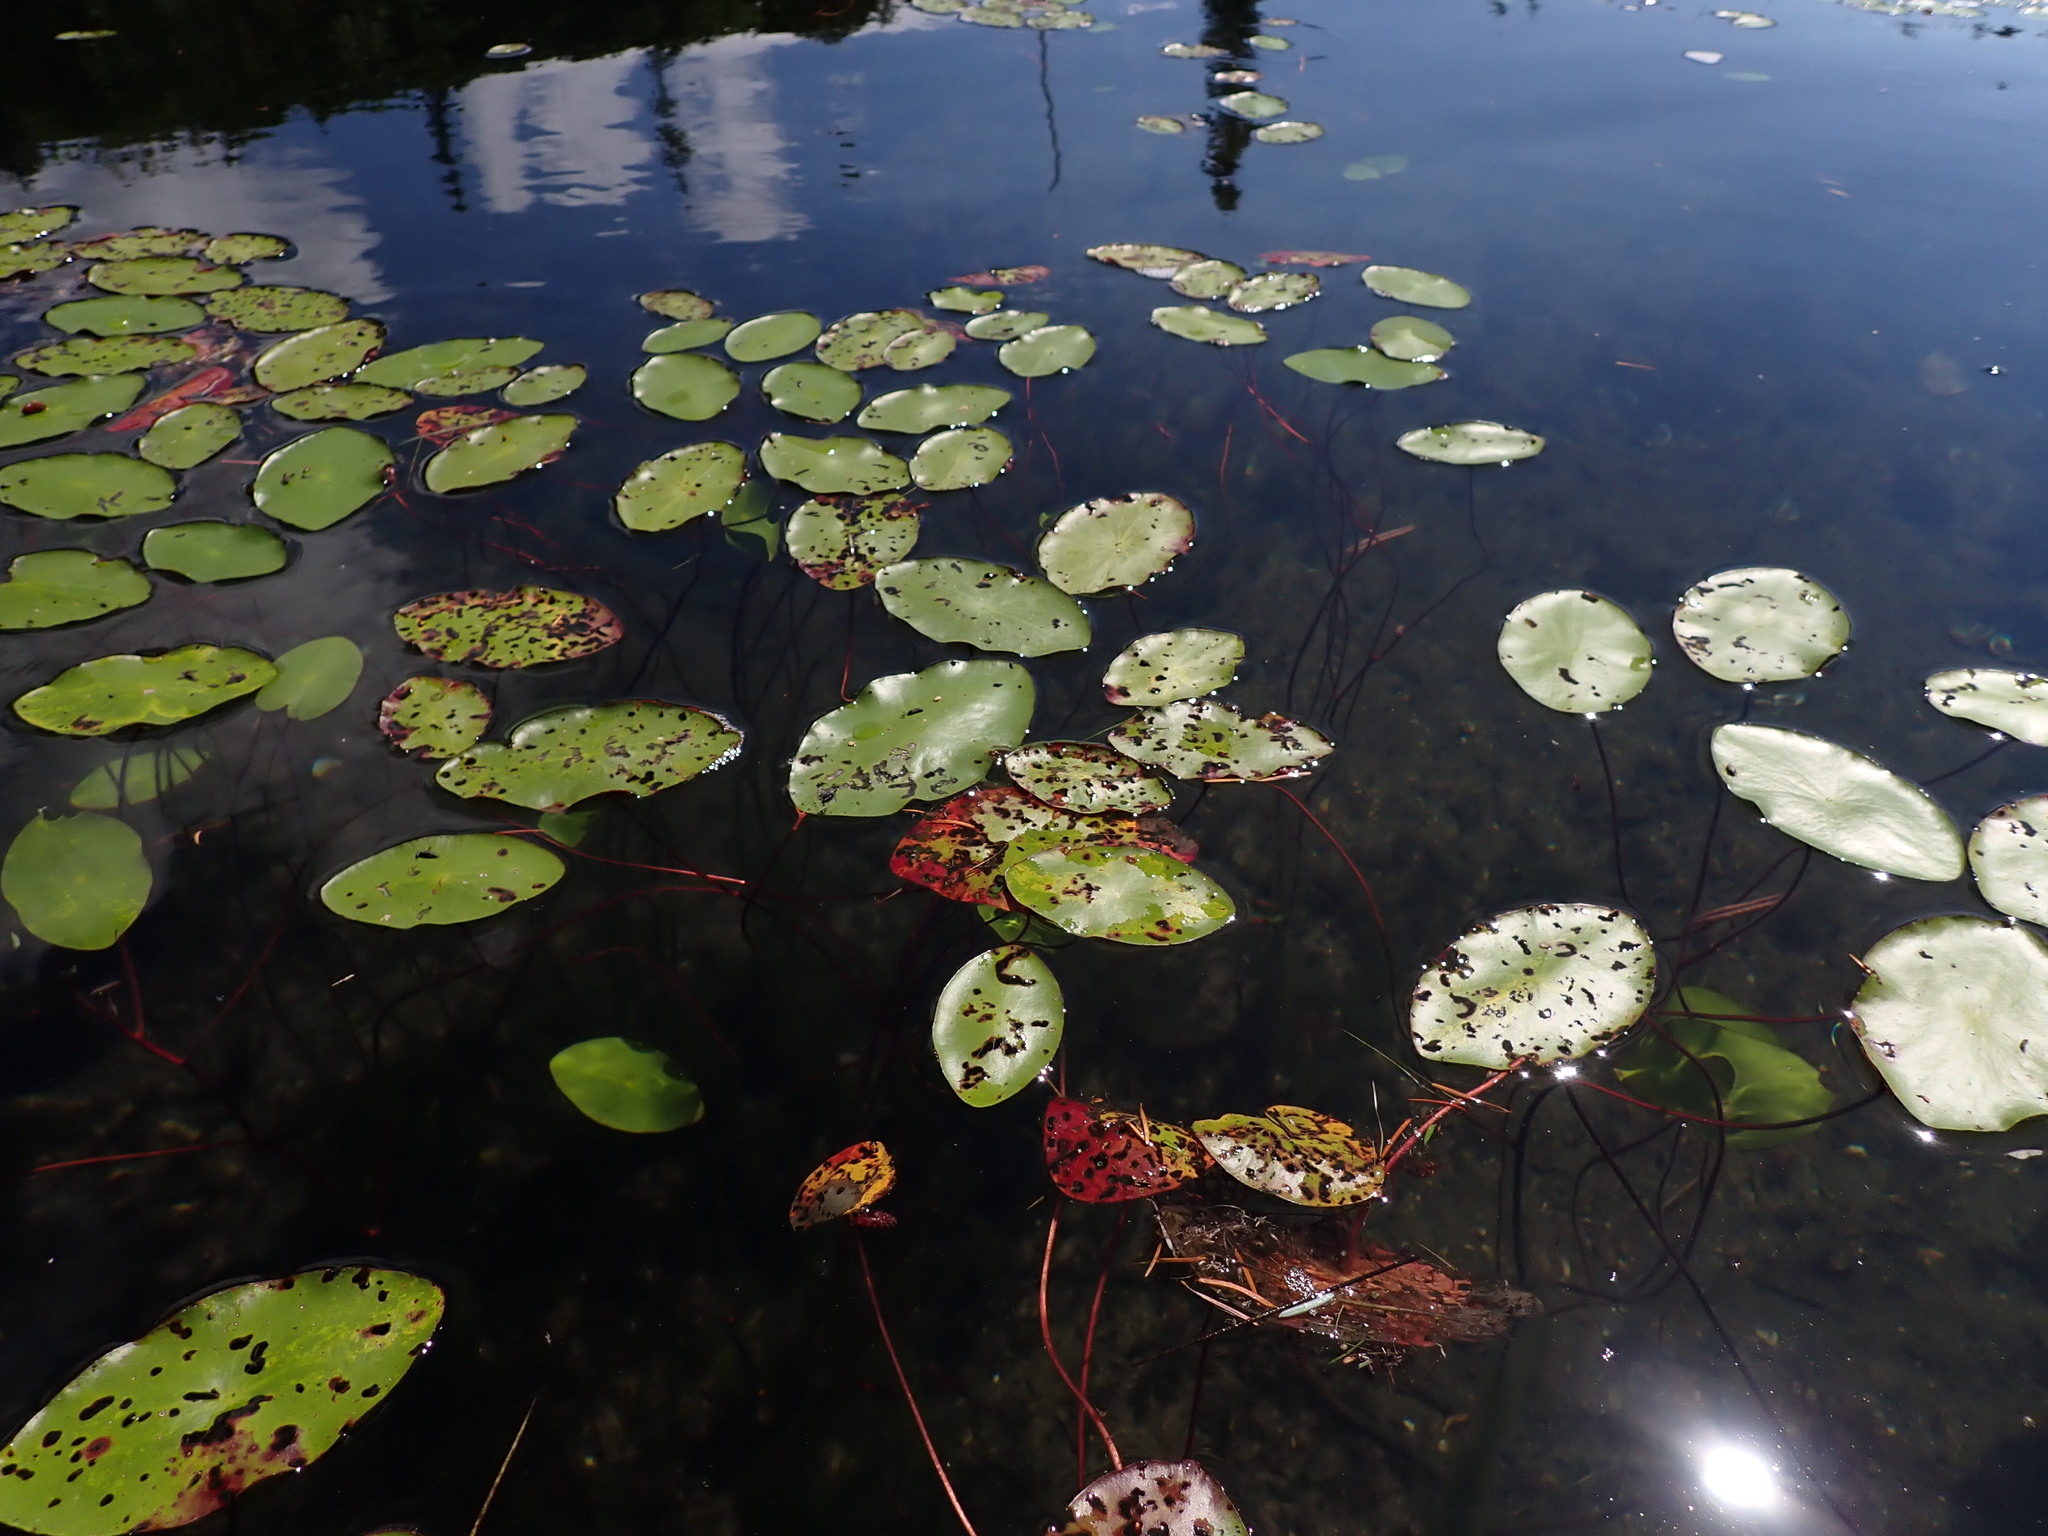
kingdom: Plantae
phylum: Tracheophyta
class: Magnoliopsida
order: Nymphaeales
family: Cabombaceae
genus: Brasenia
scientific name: Brasenia schreberi
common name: Water-shield
